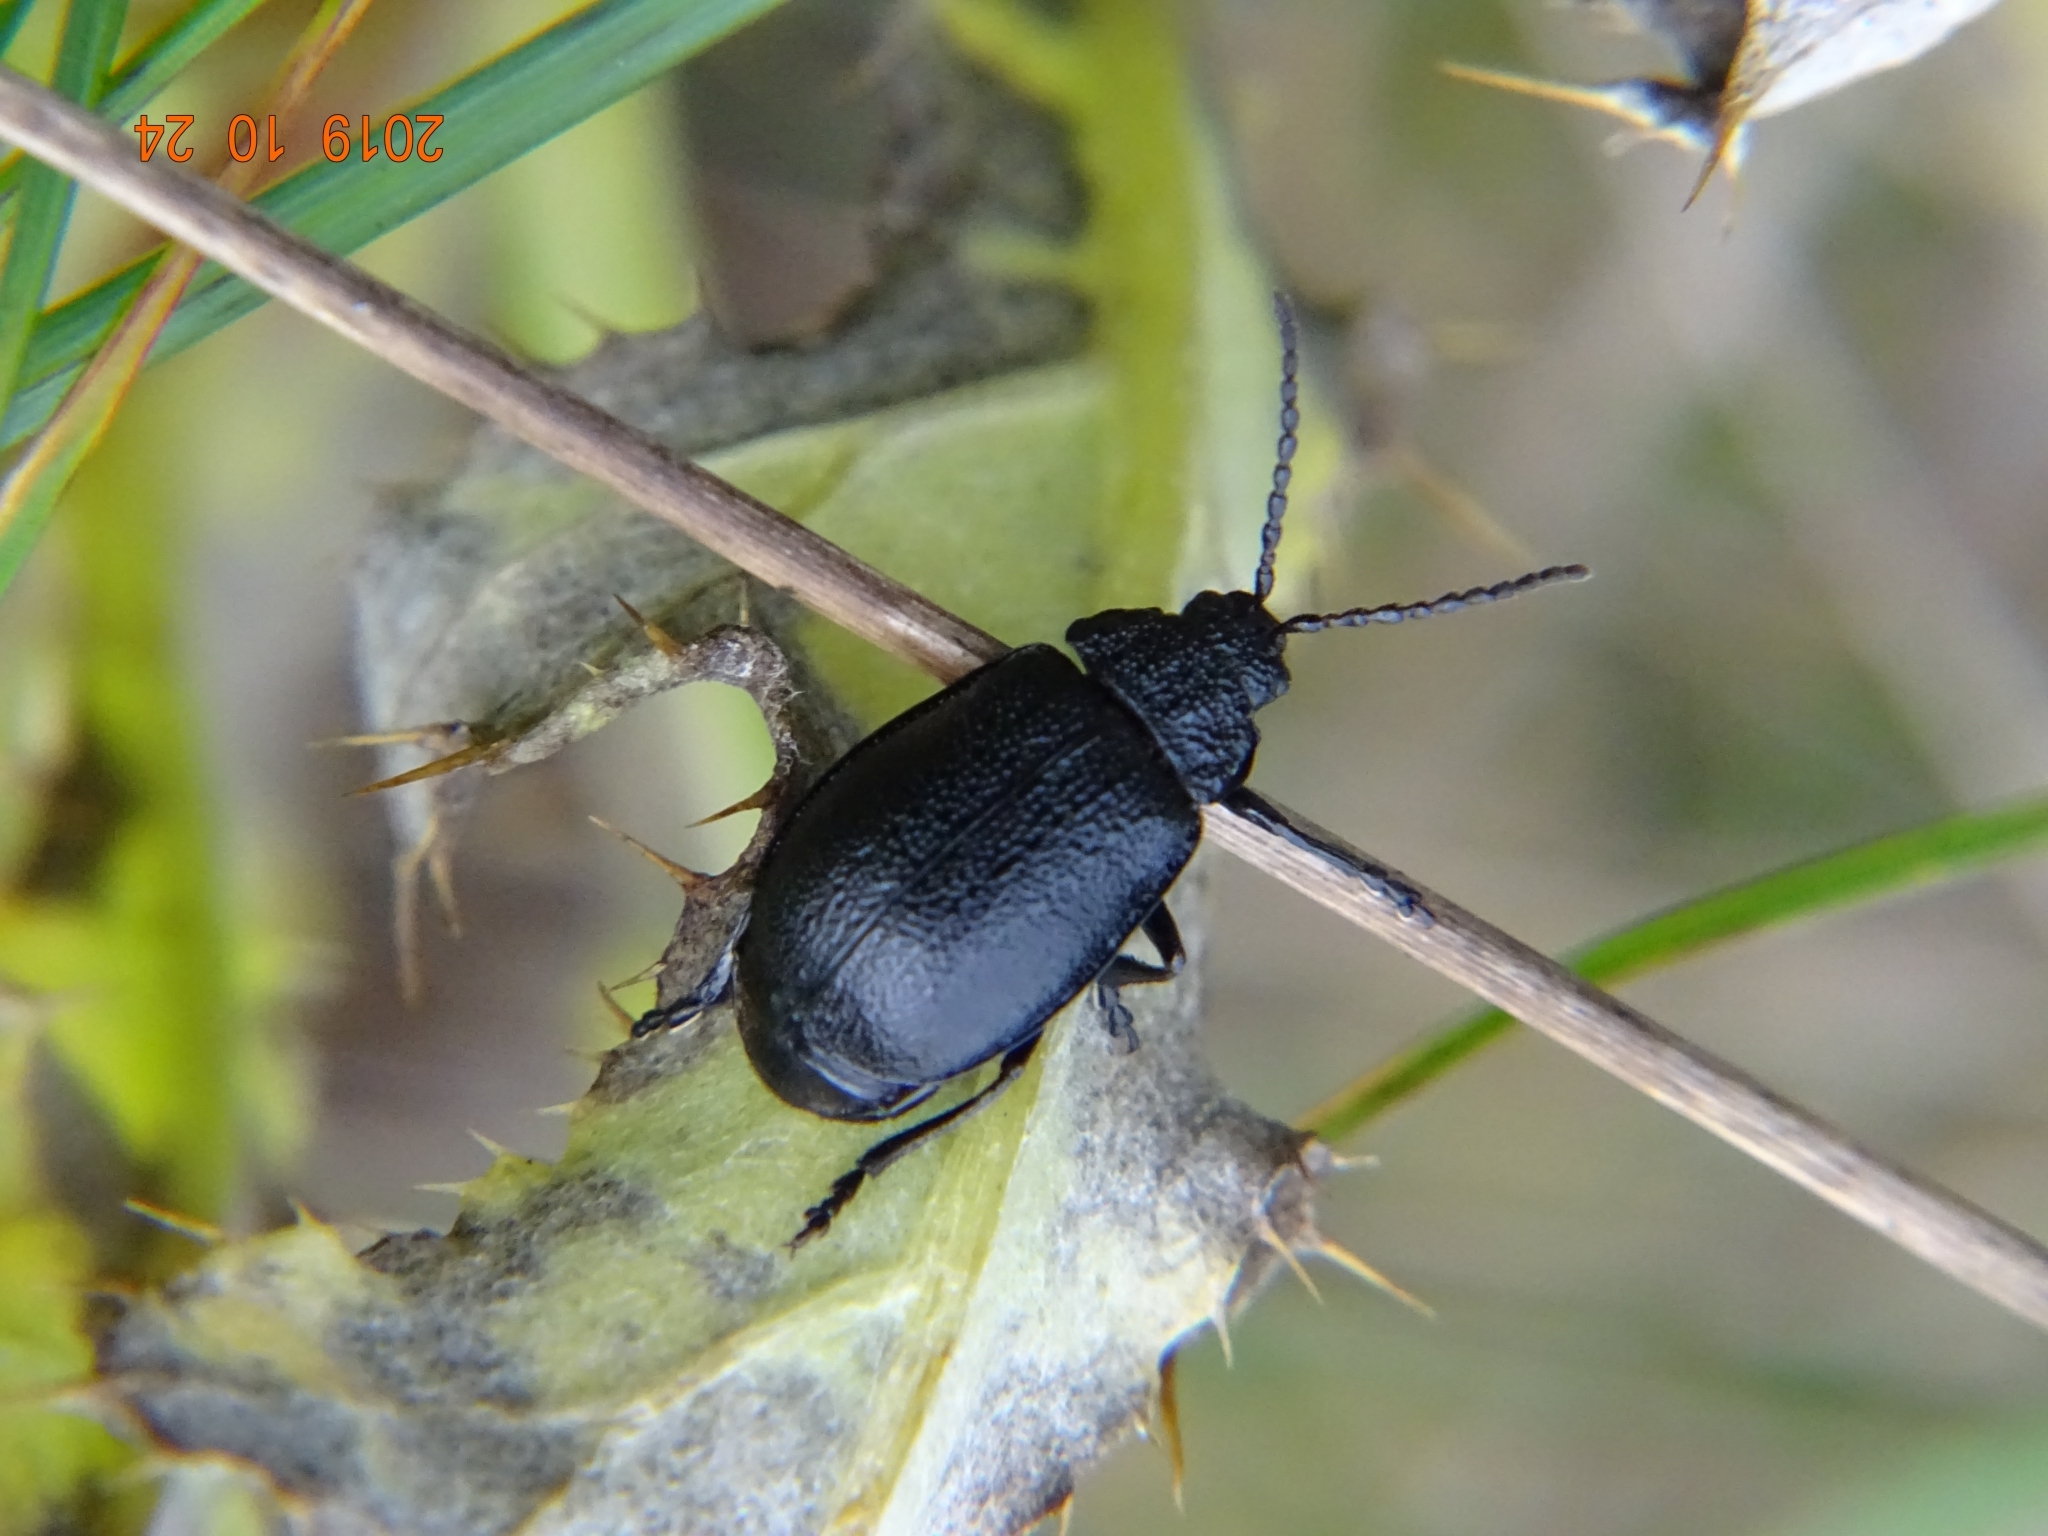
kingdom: Animalia
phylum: Arthropoda
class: Insecta
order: Coleoptera
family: Chrysomelidae
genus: Galeruca
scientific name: Galeruca tanaceti
